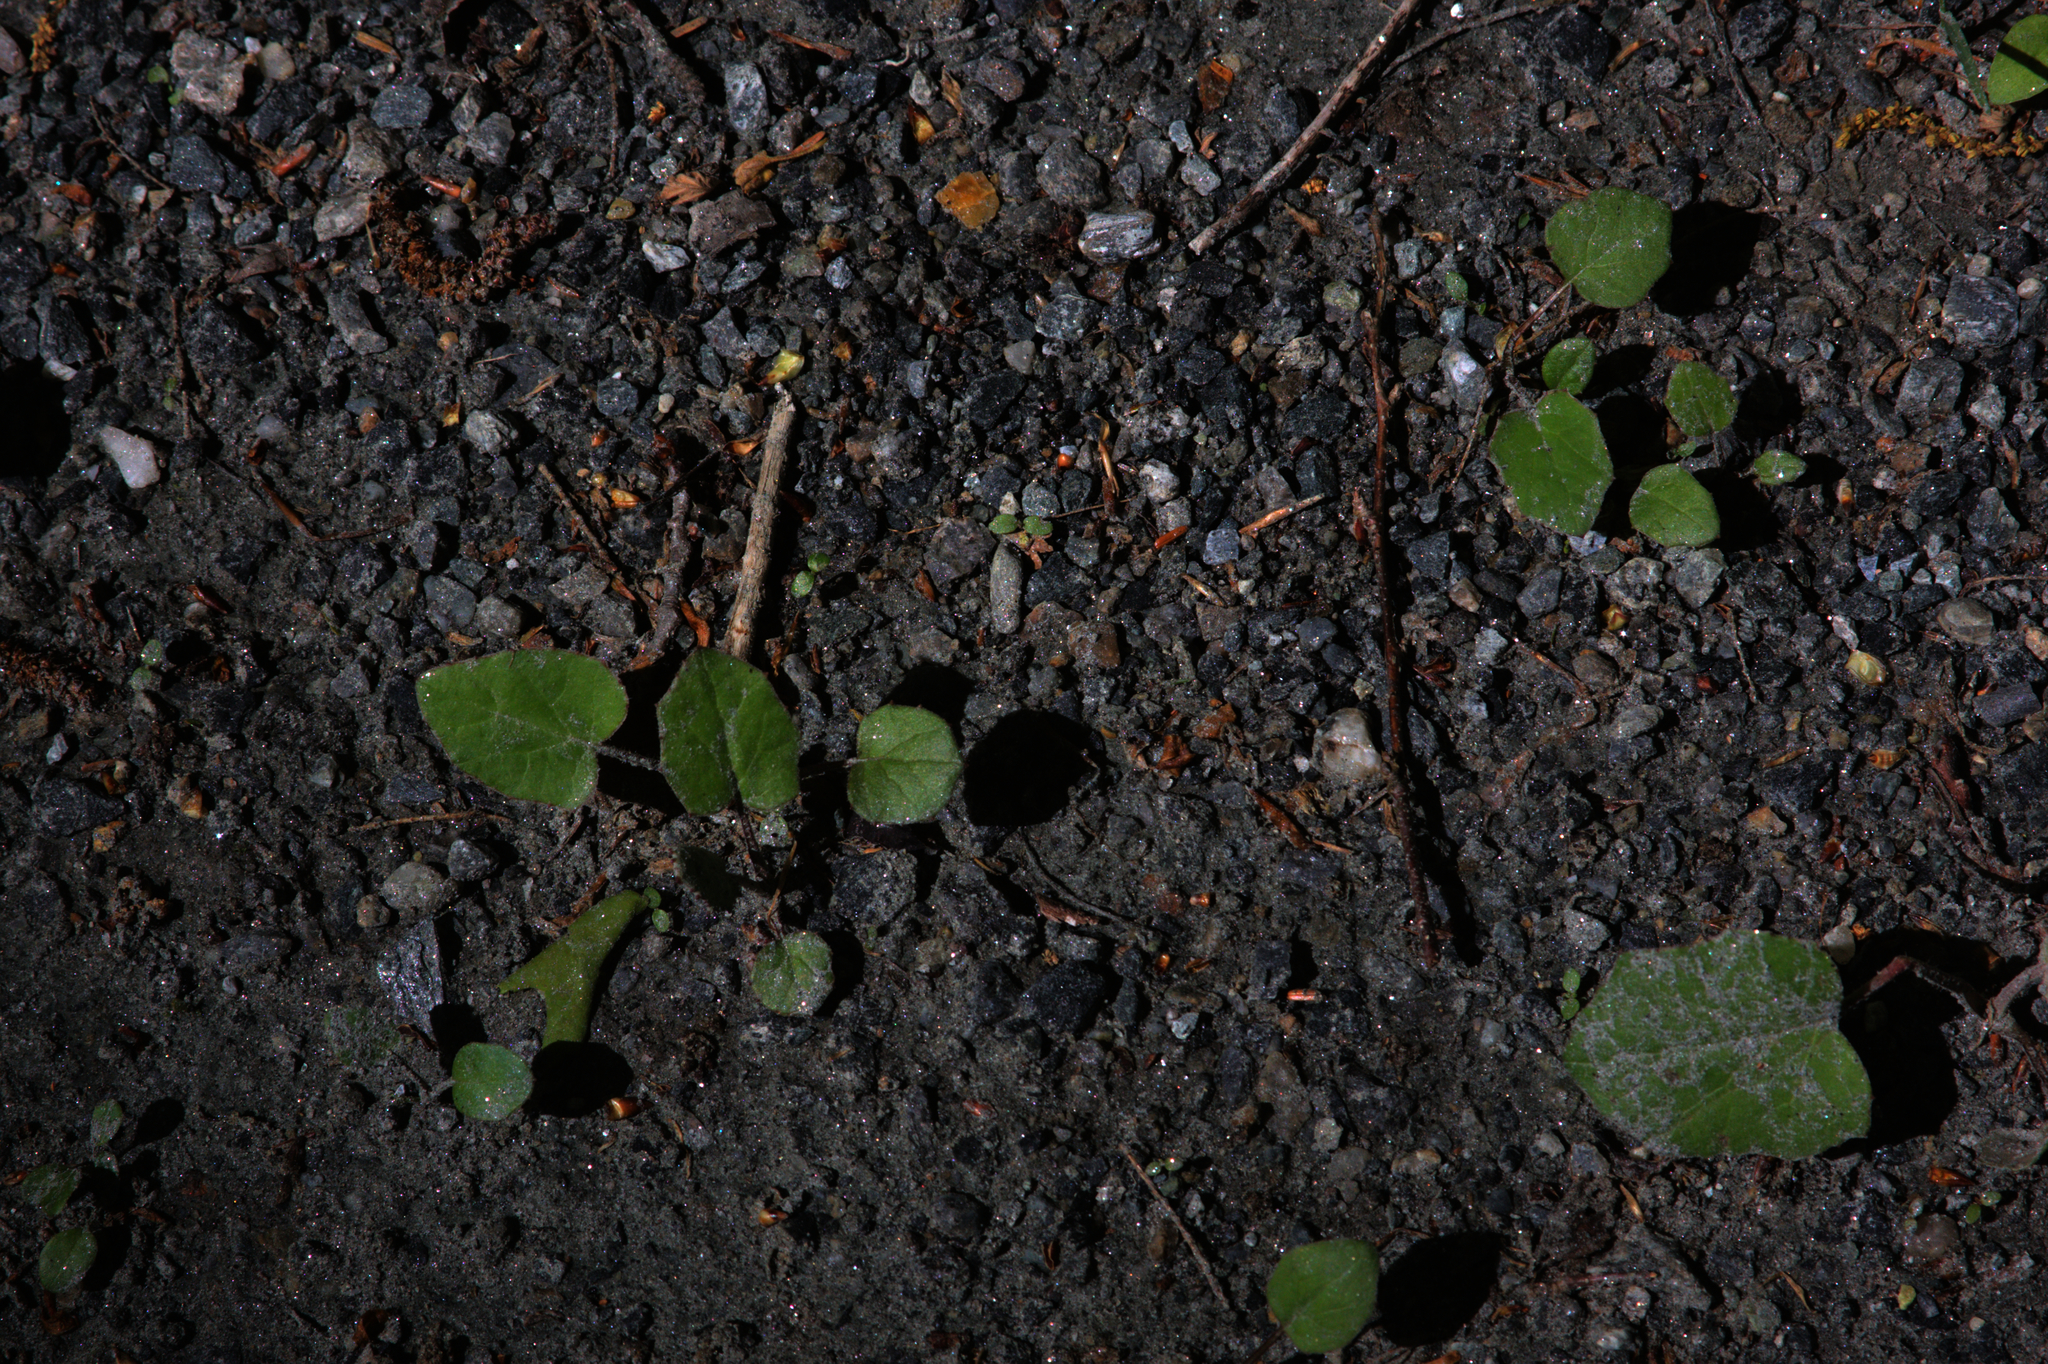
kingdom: Plantae
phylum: Tracheophyta
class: Magnoliopsida
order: Asterales
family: Asteraceae
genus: Tussilago
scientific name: Tussilago farfara
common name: Coltsfoot
